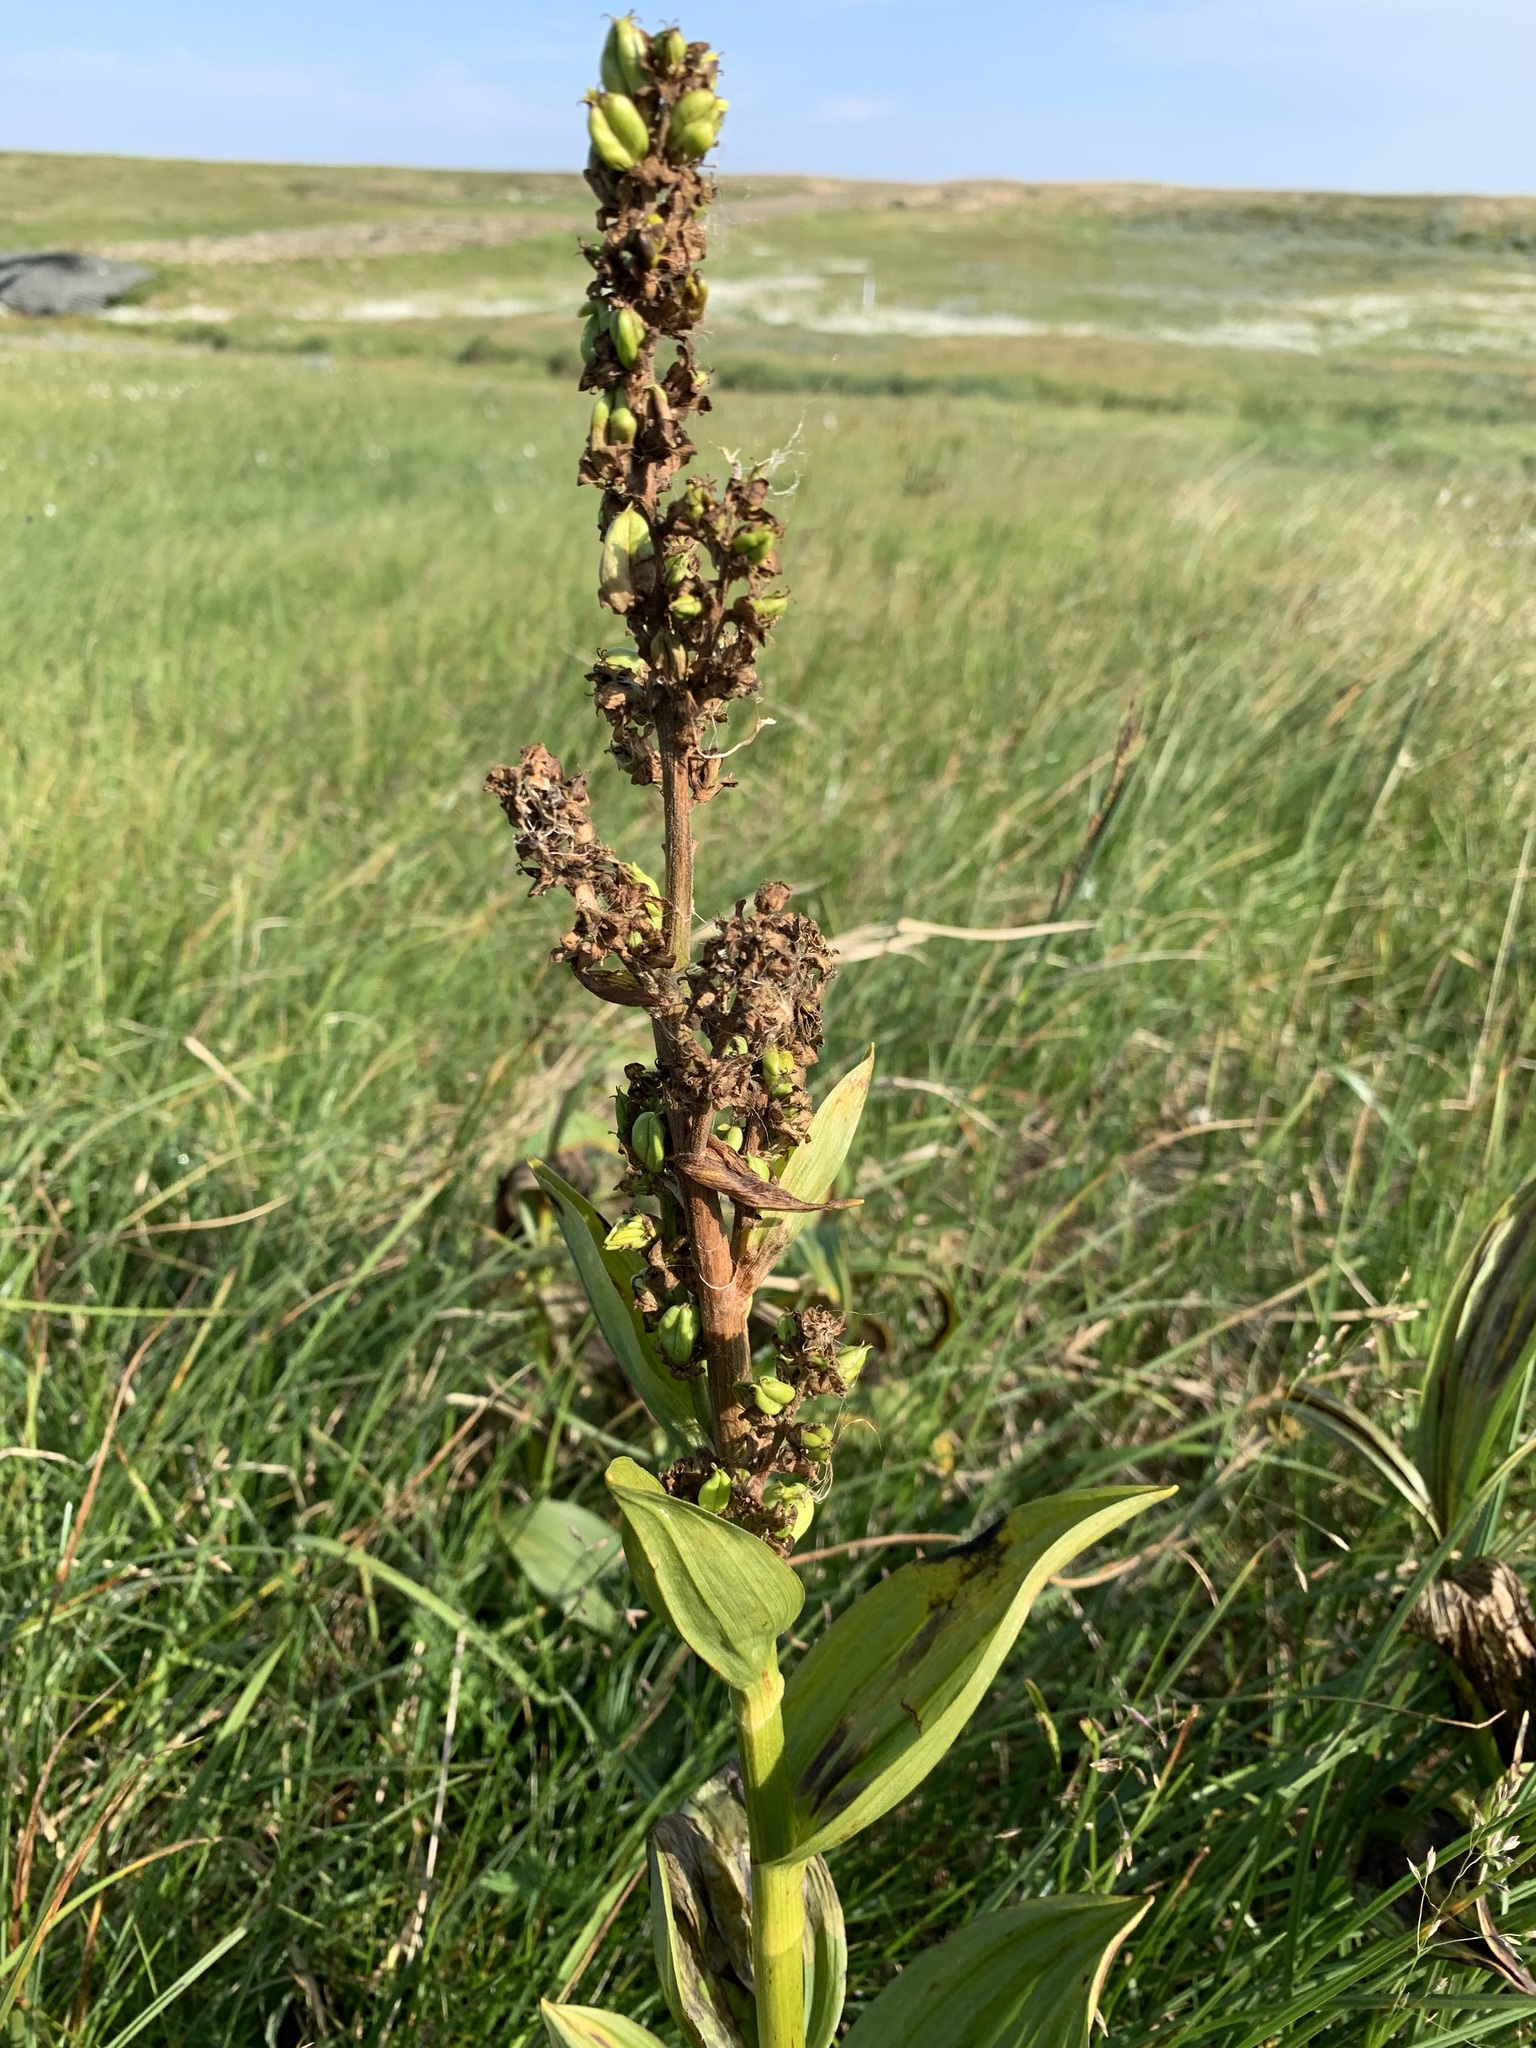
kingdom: Plantae
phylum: Tracheophyta
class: Liliopsida
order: Liliales
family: Melanthiaceae
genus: Veratrum
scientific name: Veratrum lobelianum
